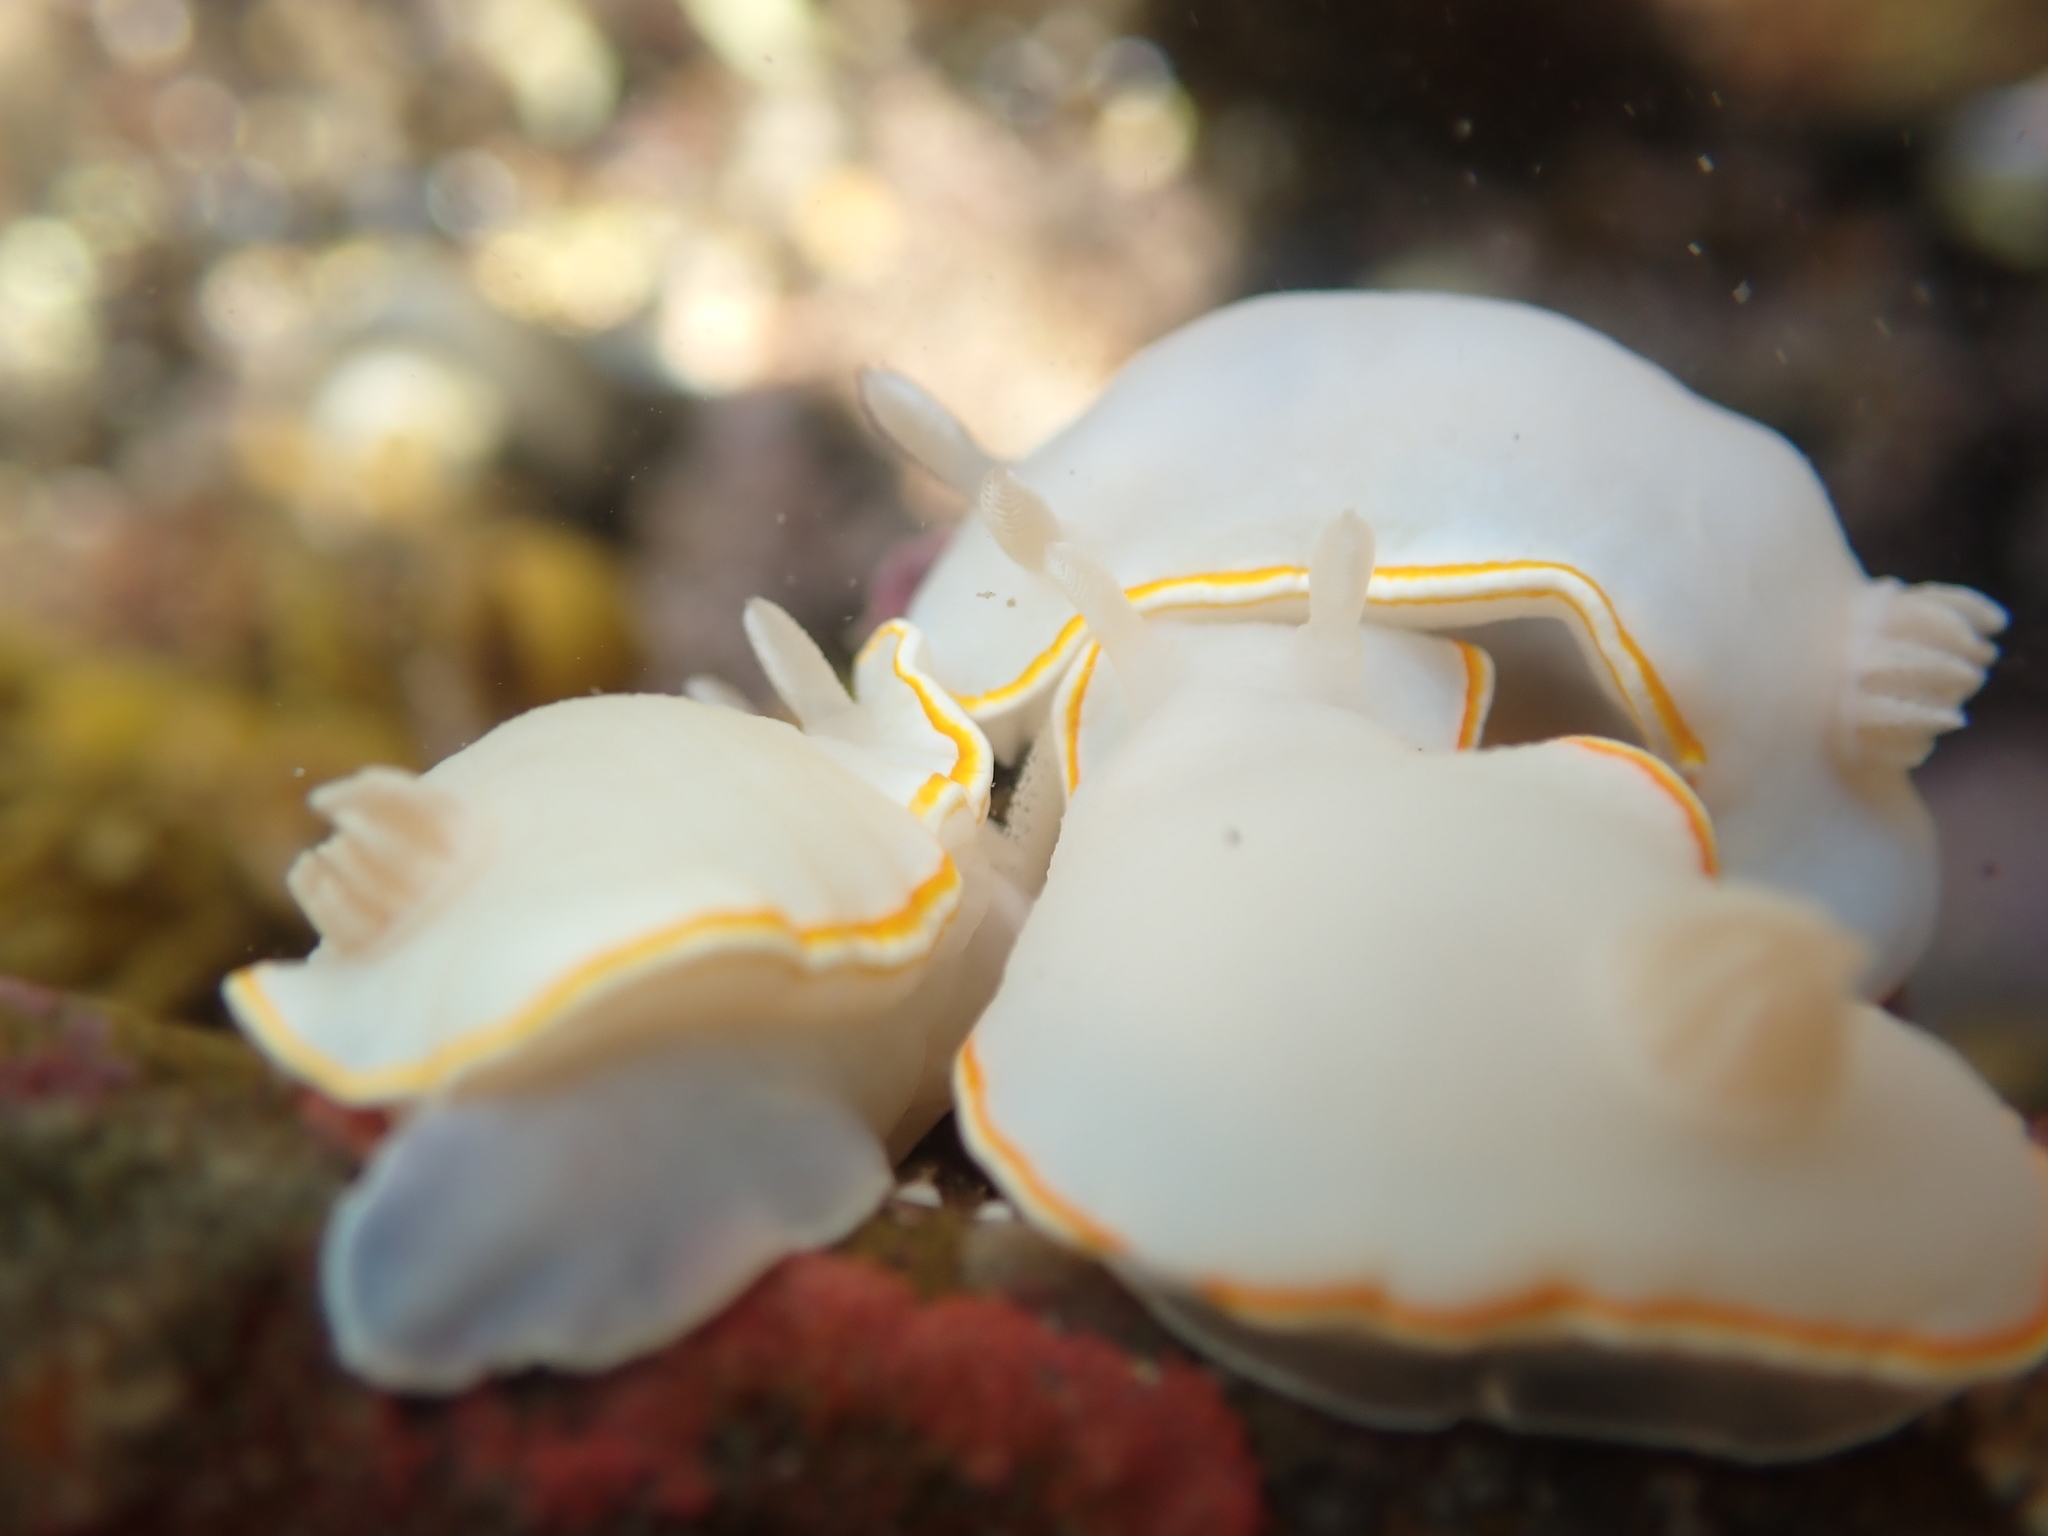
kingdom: Animalia
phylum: Mollusca
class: Gastropoda
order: Nudibranchia
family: Chromodorididae
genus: Goniobranchus
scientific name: Goniobranchus aureomarginatus
